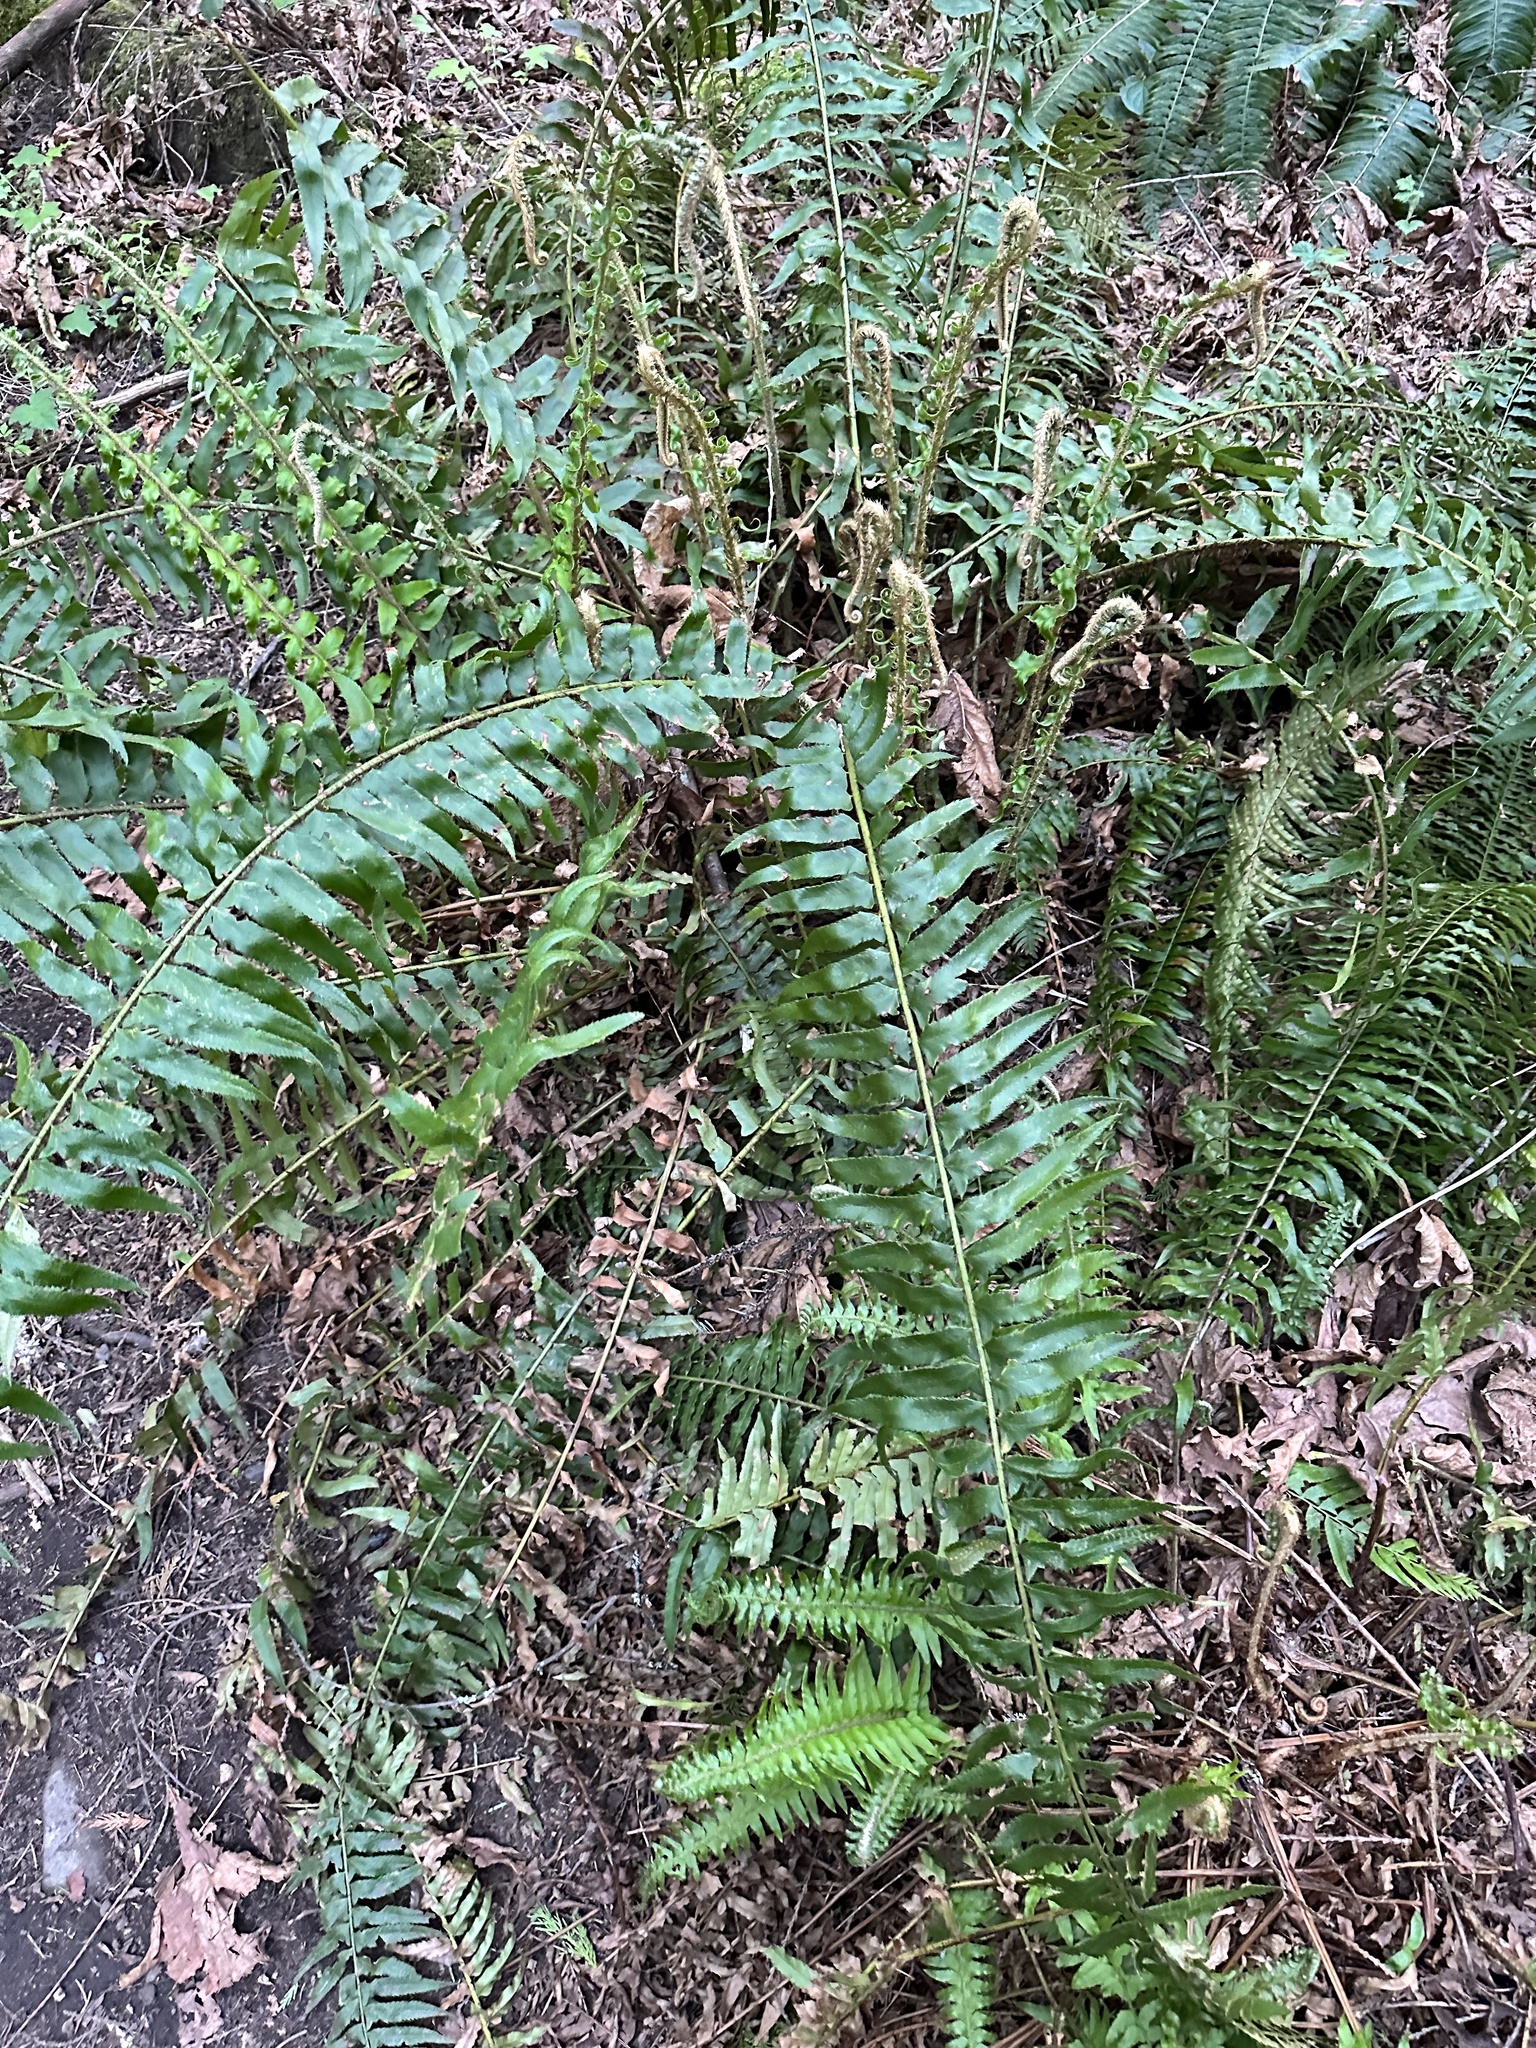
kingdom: Plantae
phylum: Tracheophyta
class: Polypodiopsida
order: Polypodiales
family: Dryopteridaceae
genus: Polystichum
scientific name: Polystichum munitum
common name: Western sword-fern
